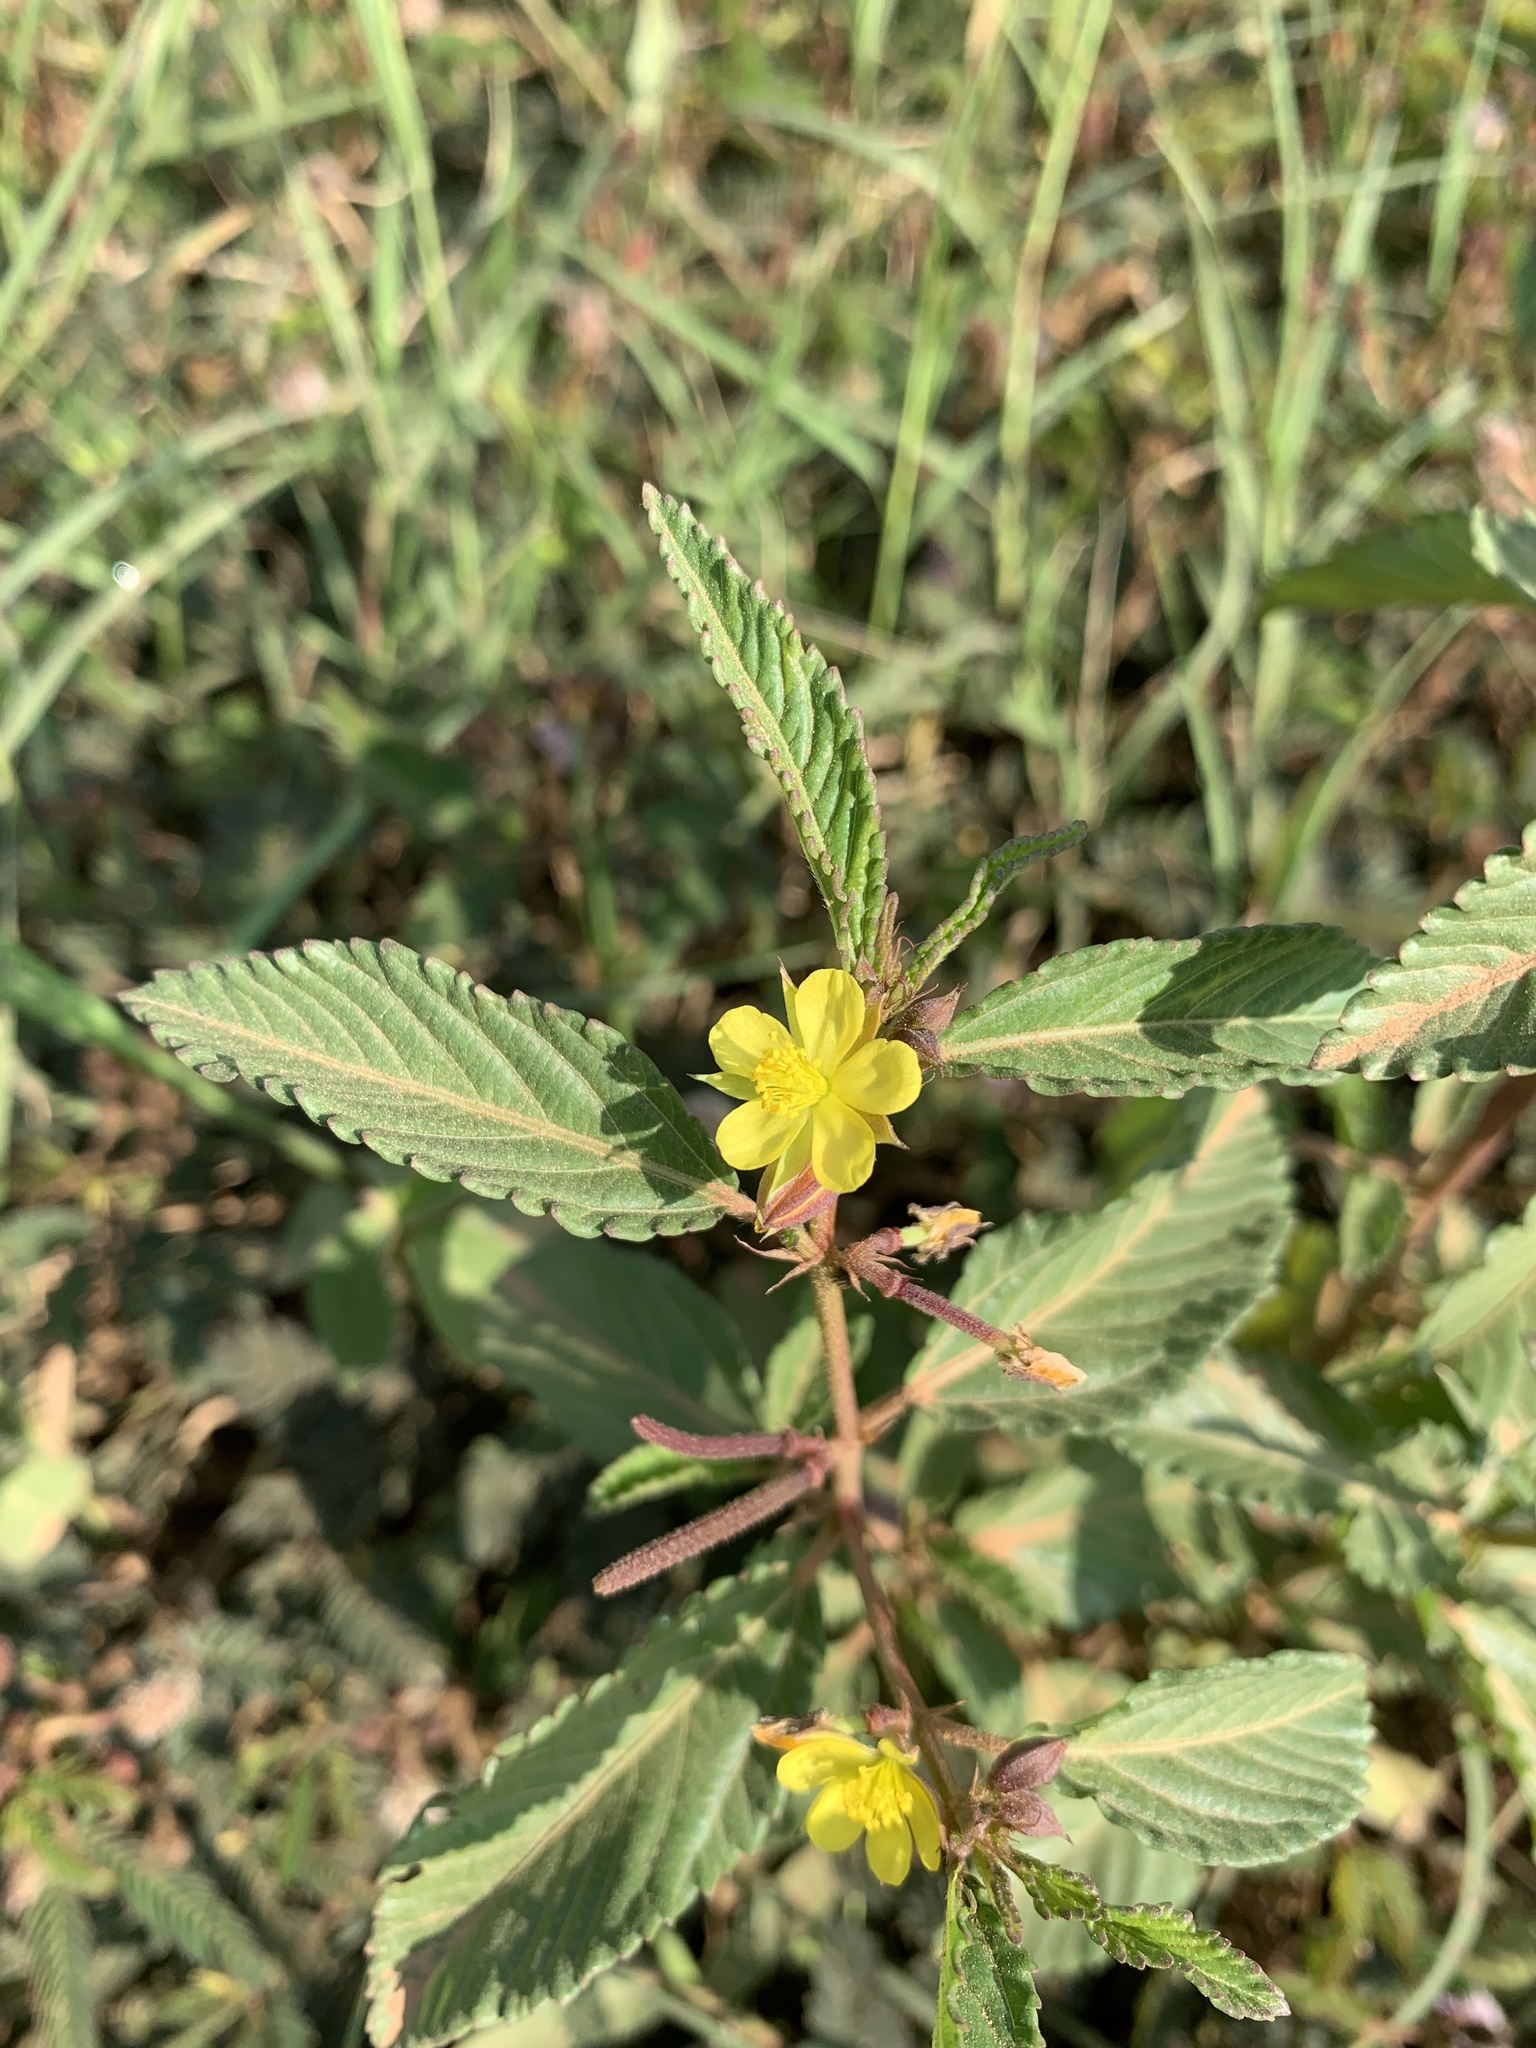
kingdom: Plantae
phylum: Tracheophyta
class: Magnoliopsida
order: Malvales
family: Malvaceae
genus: Corchorus
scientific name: Corchorus trilocularis
